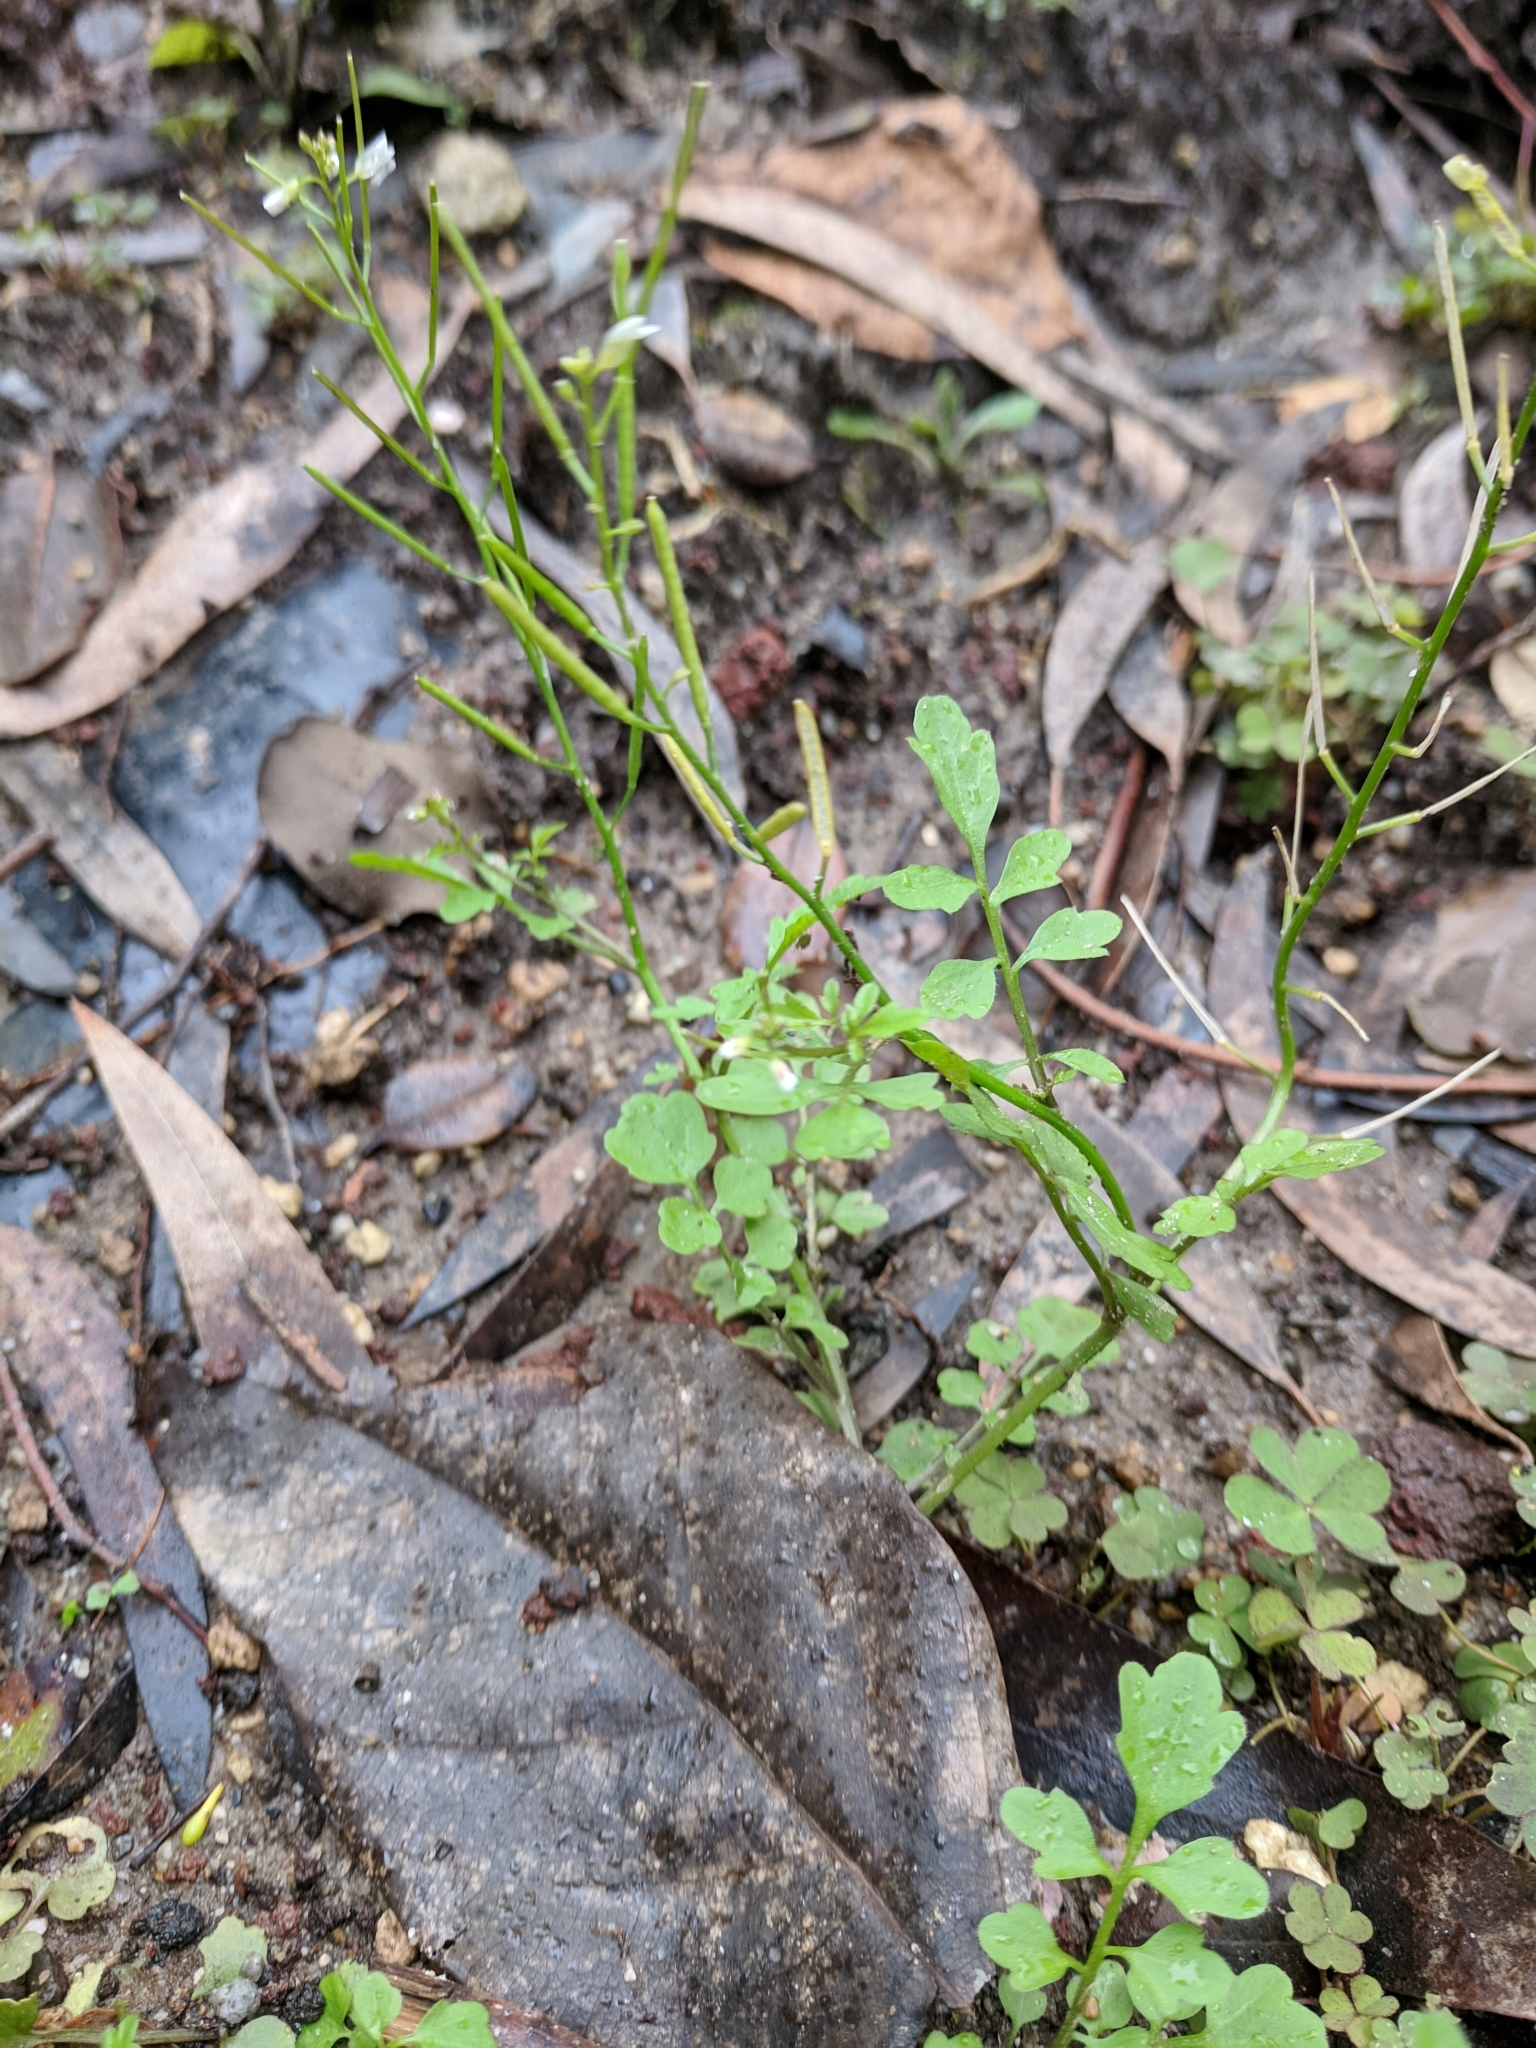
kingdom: Plantae
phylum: Tracheophyta
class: Magnoliopsida
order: Brassicales
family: Brassicaceae
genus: Cardamine
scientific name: Cardamine occulta
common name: Asian wavy bittercress
